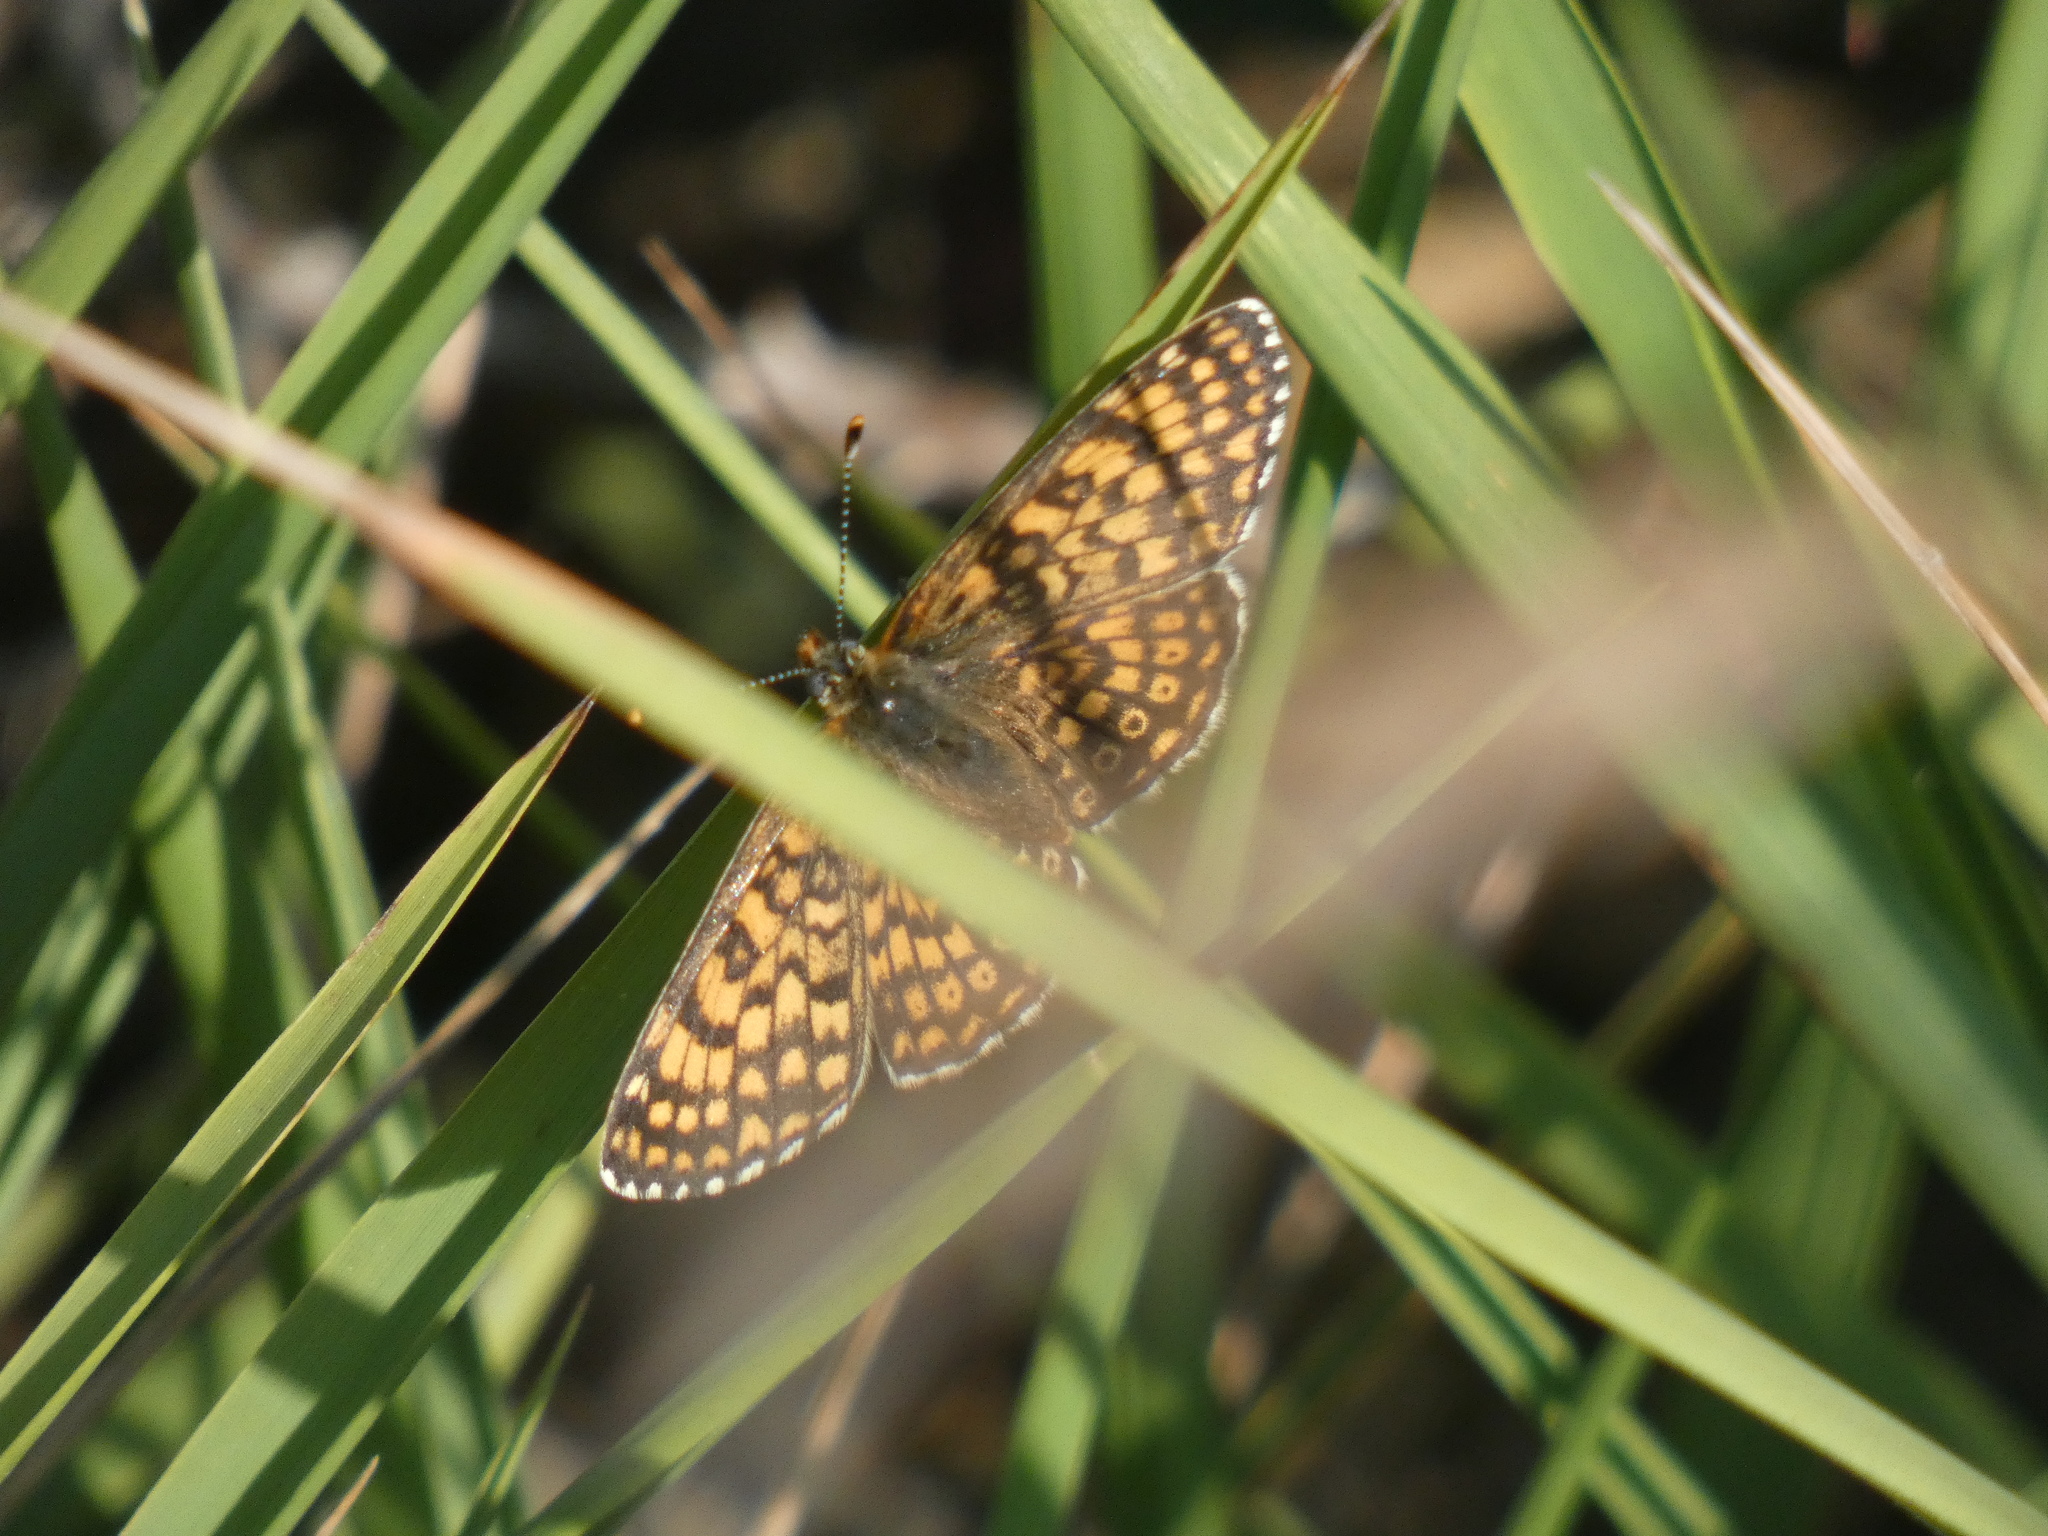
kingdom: Animalia
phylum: Arthropoda
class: Insecta
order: Lepidoptera
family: Nymphalidae
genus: Melitaea
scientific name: Melitaea cinxia
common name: Glanville fritillary
